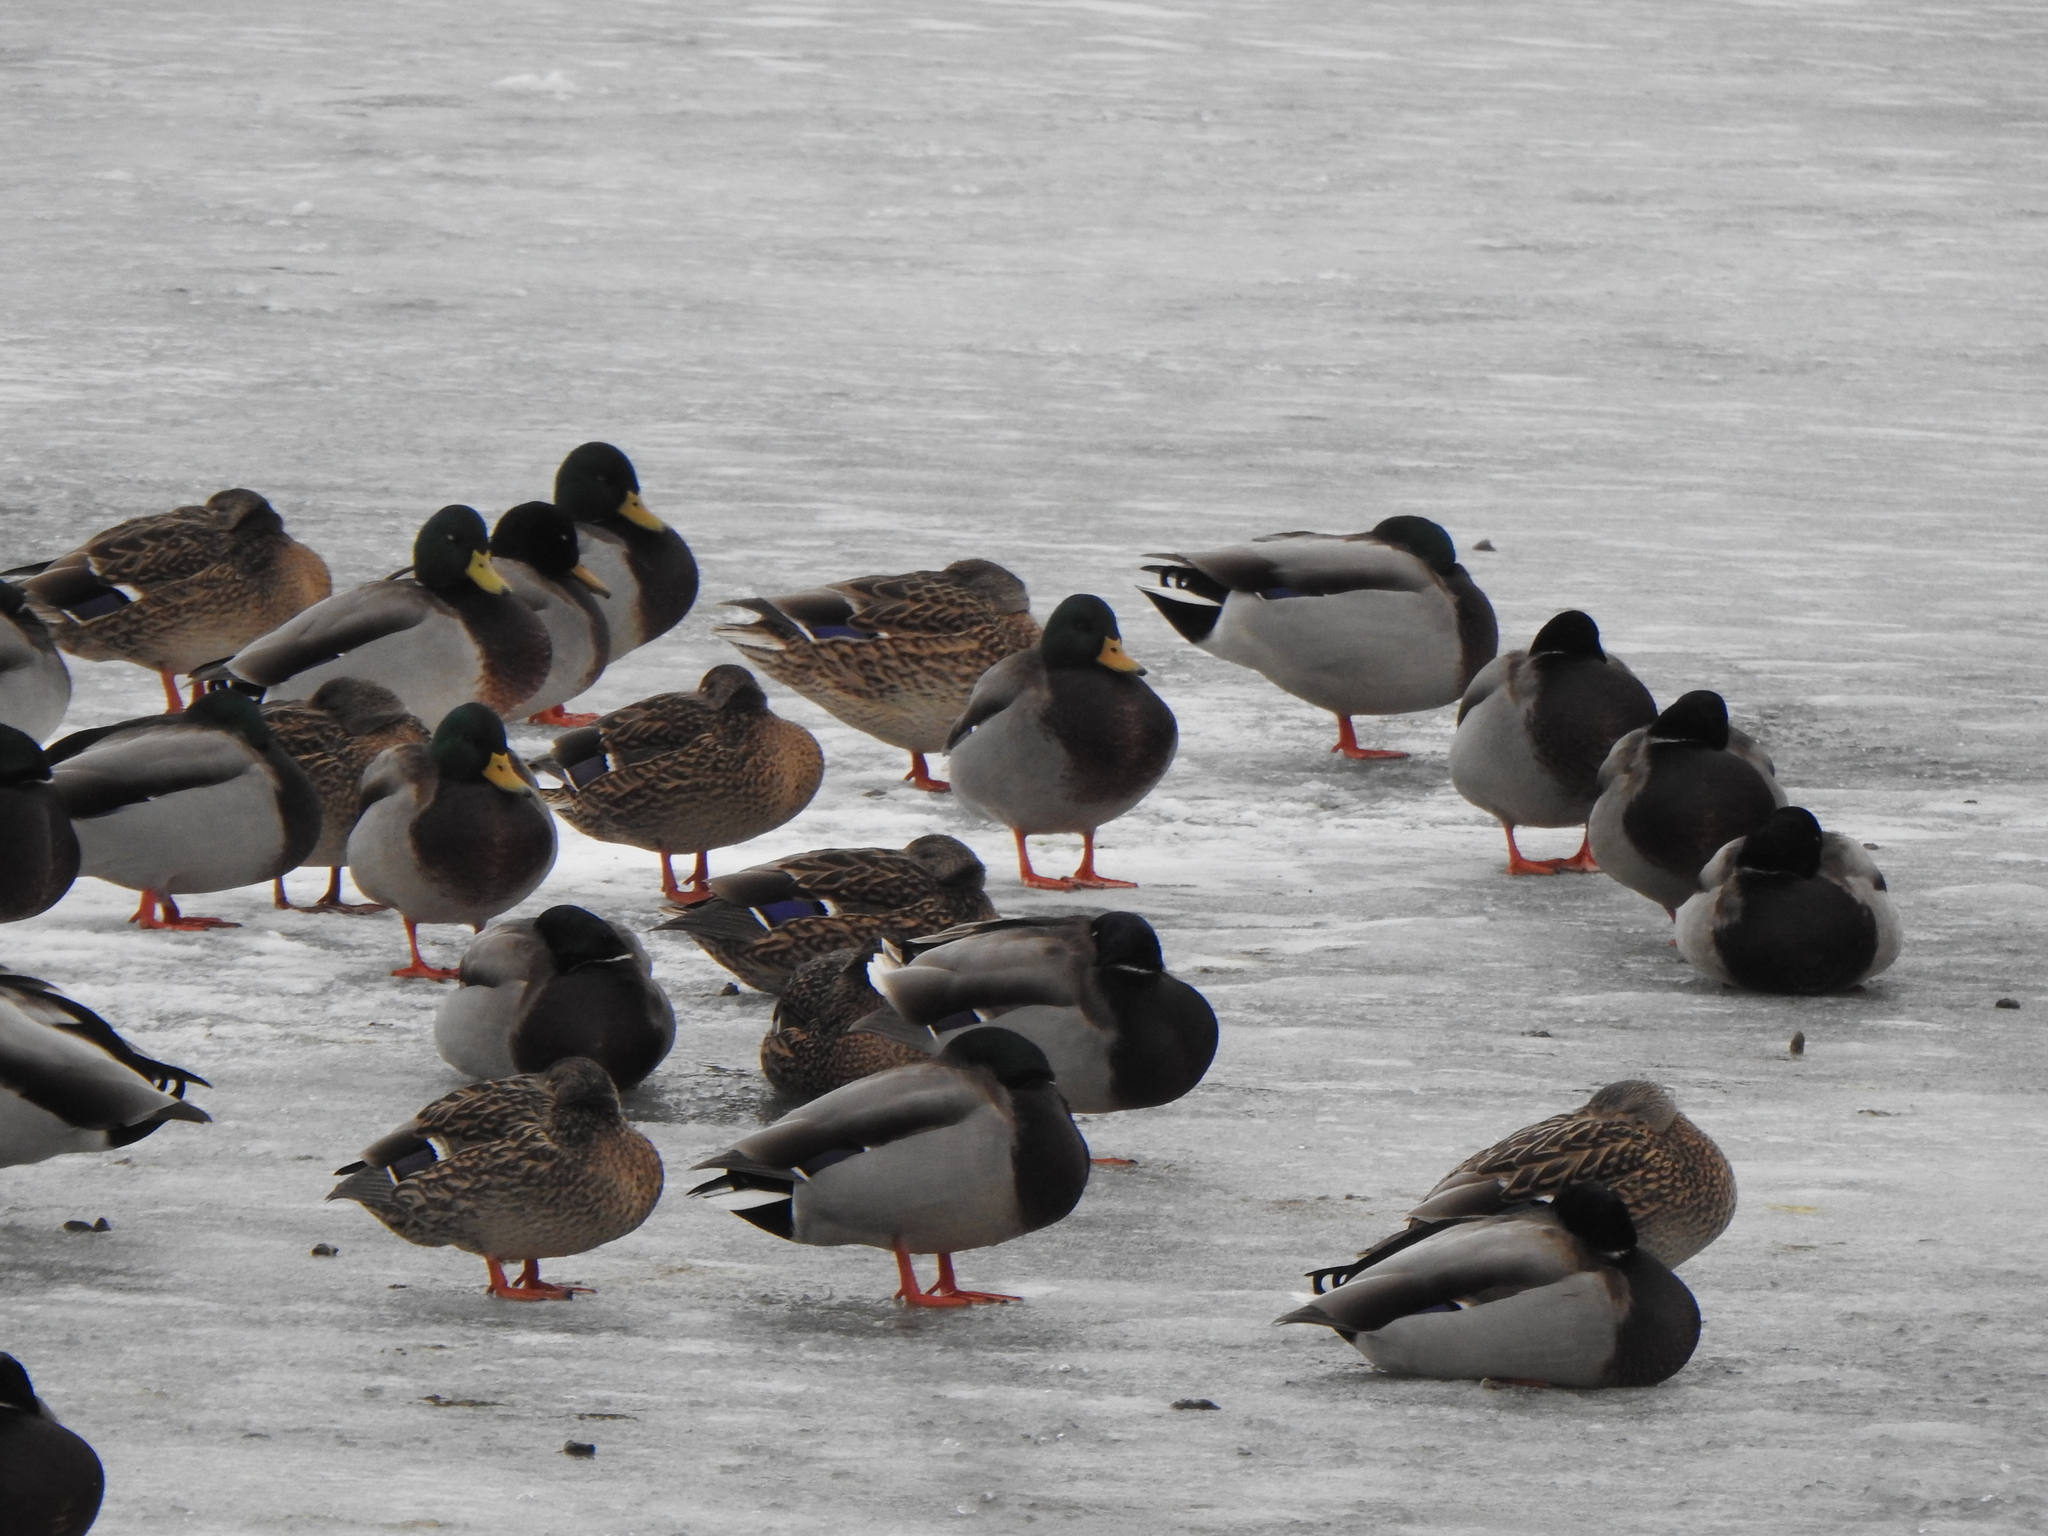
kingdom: Animalia
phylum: Chordata
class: Aves
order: Anseriformes
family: Anatidae
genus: Anas
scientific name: Anas platyrhynchos
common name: Mallard
